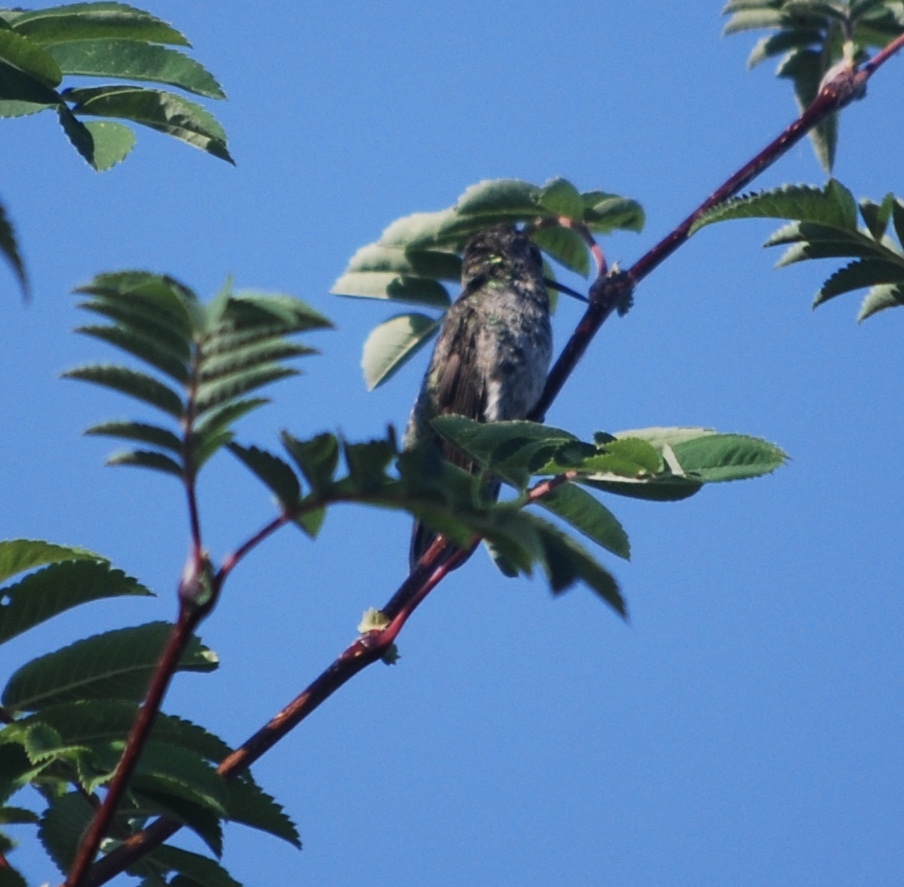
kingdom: Animalia
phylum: Chordata
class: Aves
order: Apodiformes
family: Trochilidae
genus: Calypte
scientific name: Calypte anna
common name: Anna's hummingbird
